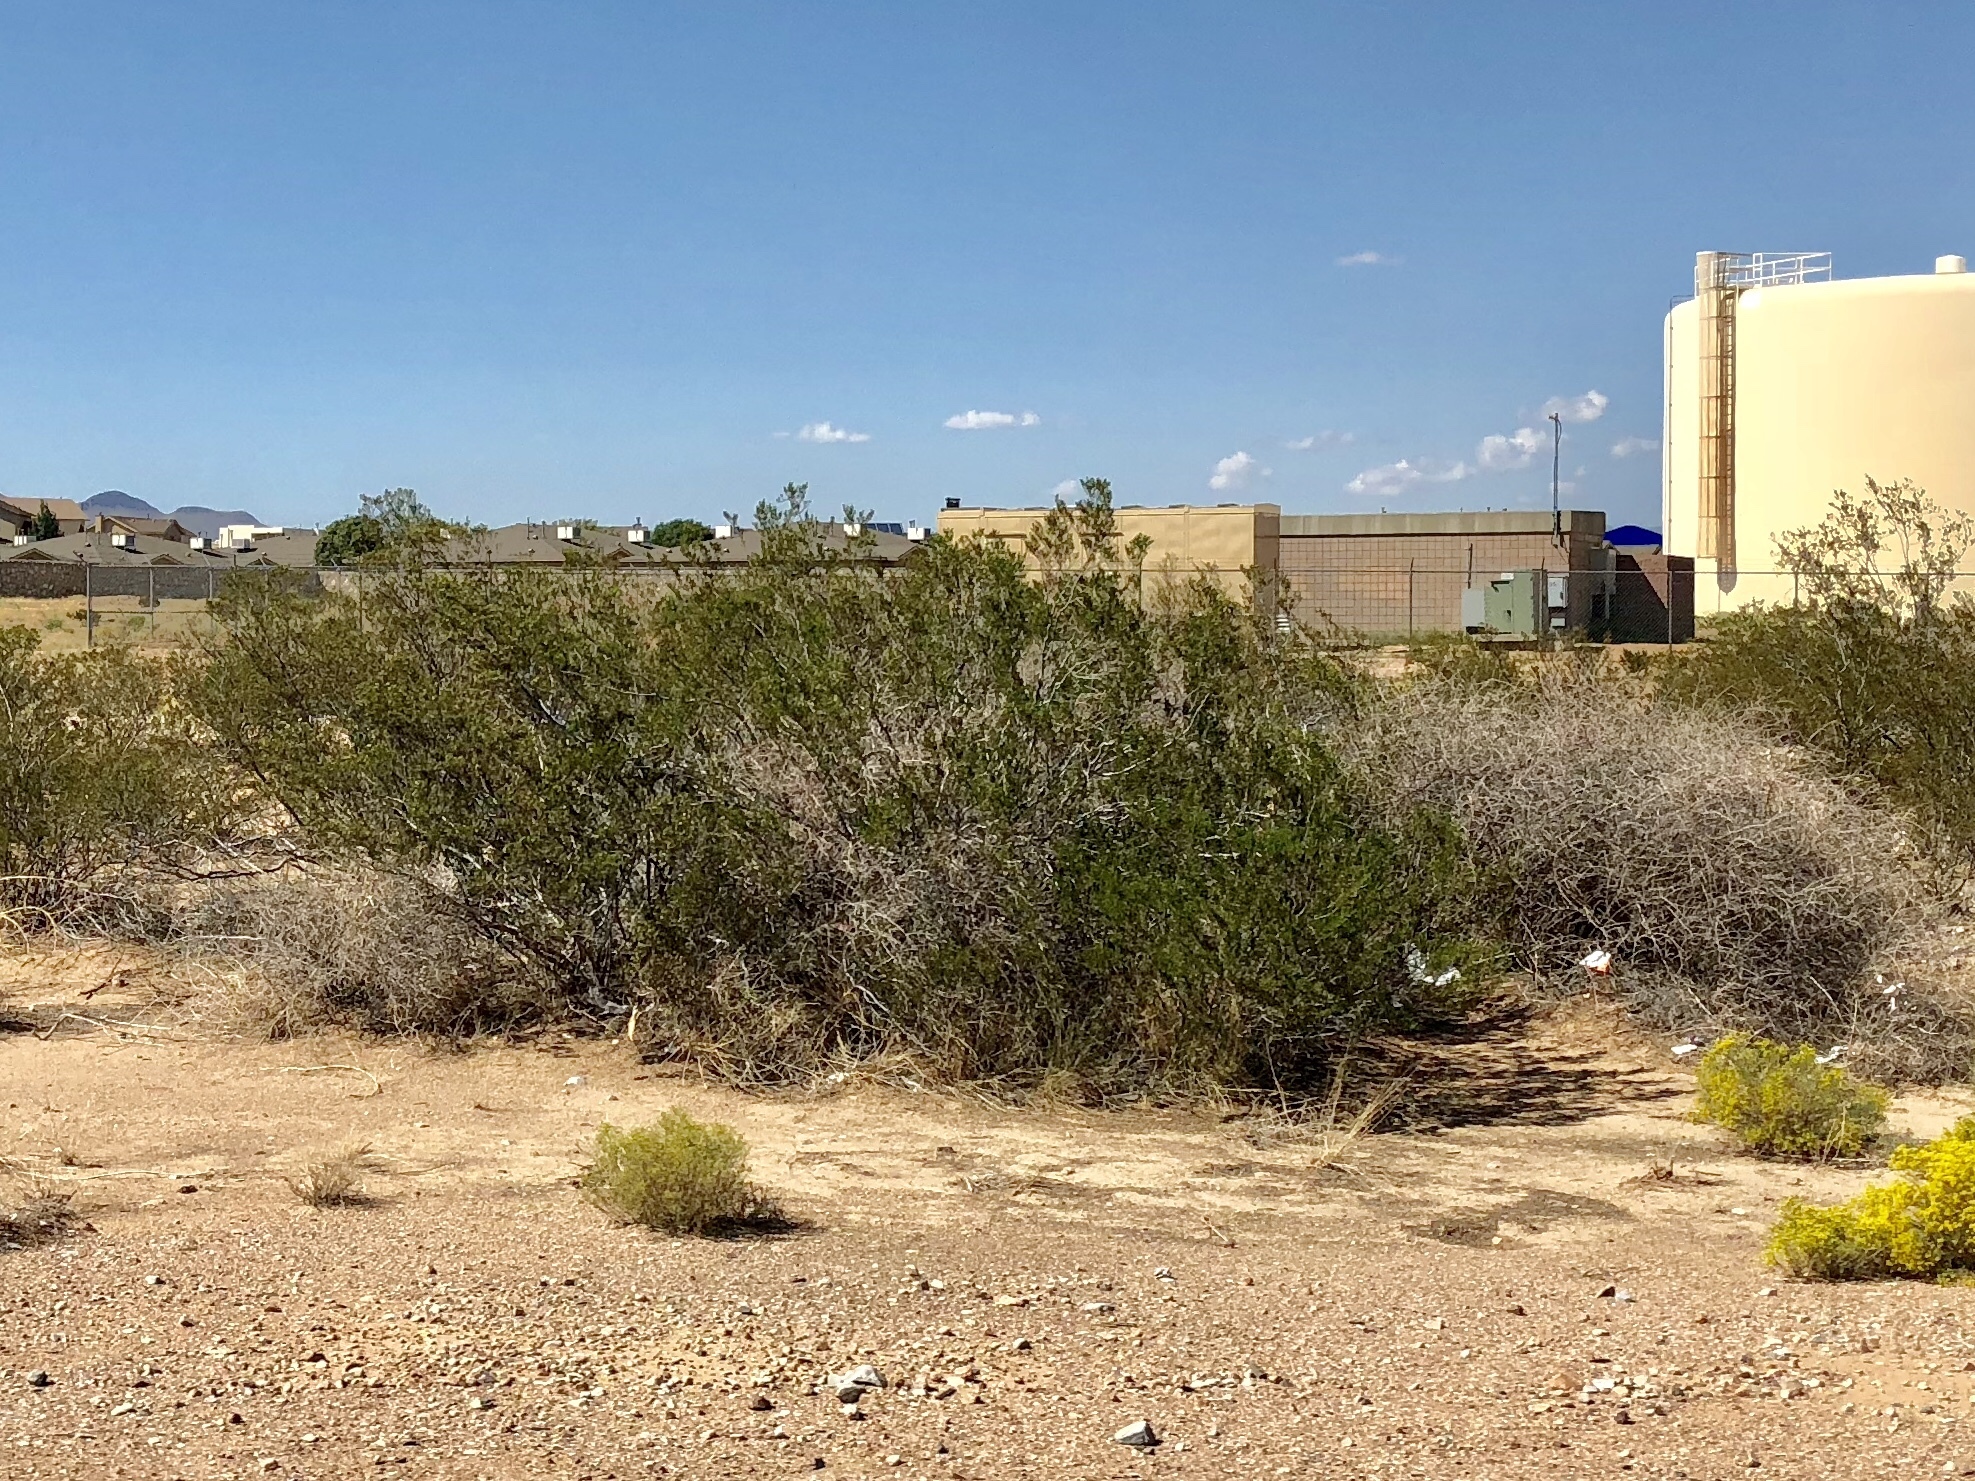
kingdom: Plantae
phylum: Tracheophyta
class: Magnoliopsida
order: Zygophyllales
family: Zygophyllaceae
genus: Larrea
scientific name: Larrea tridentata
